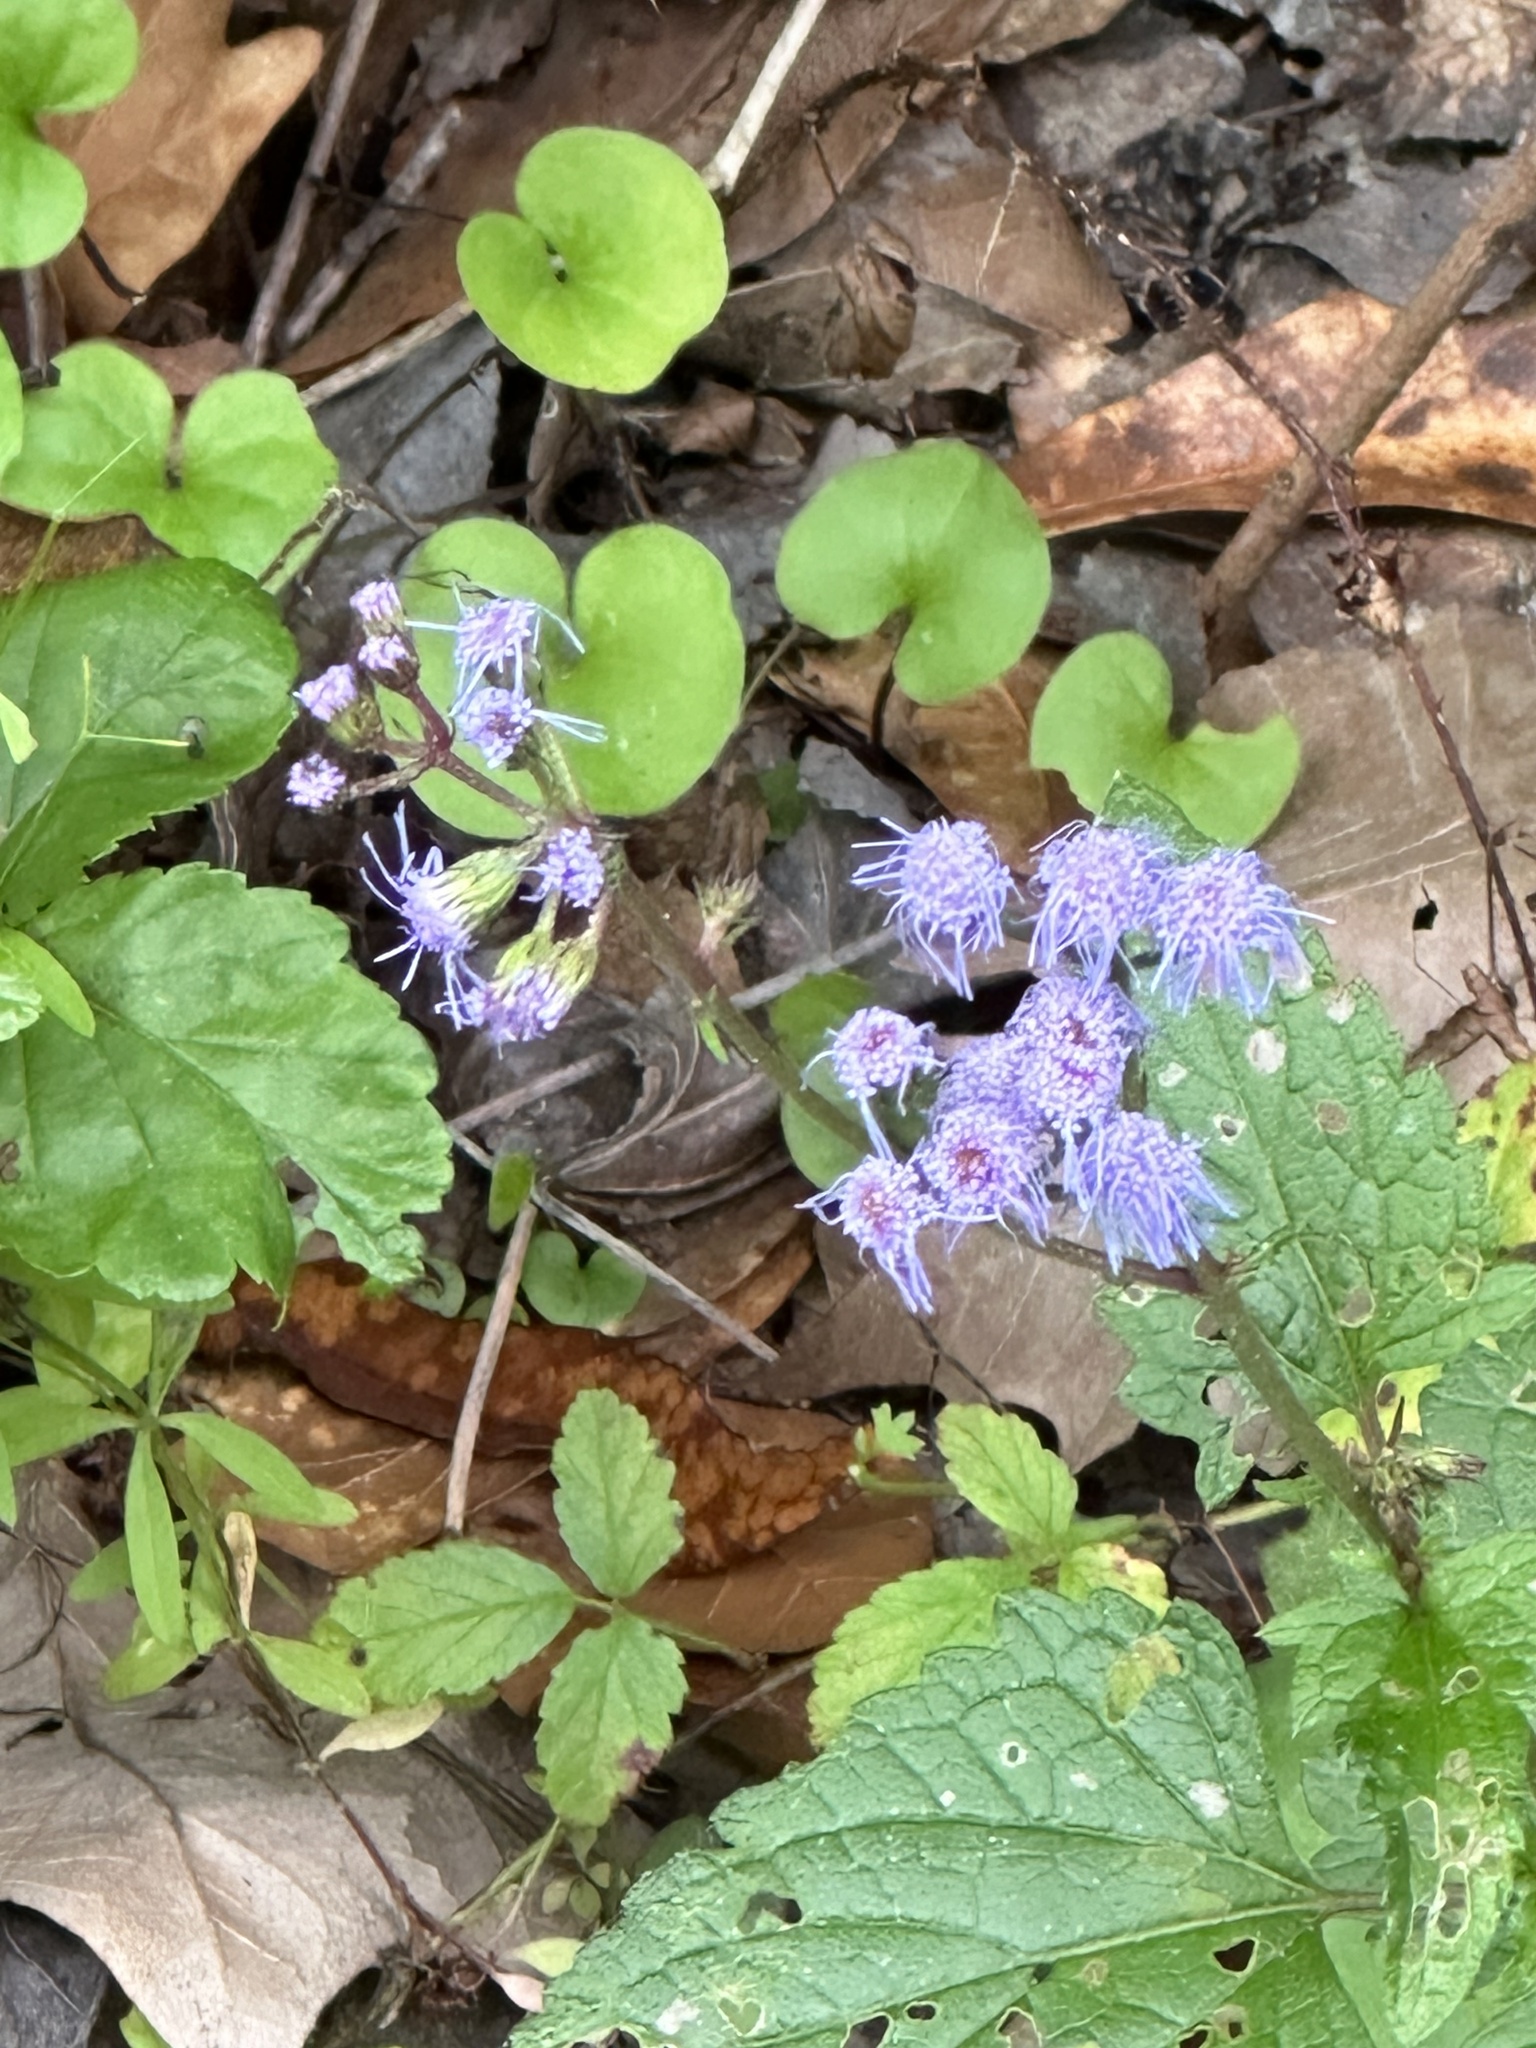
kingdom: Plantae
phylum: Tracheophyta
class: Magnoliopsida
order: Asterales
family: Asteraceae
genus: Conoclinium
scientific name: Conoclinium coelestinum
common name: Blue mistflower
